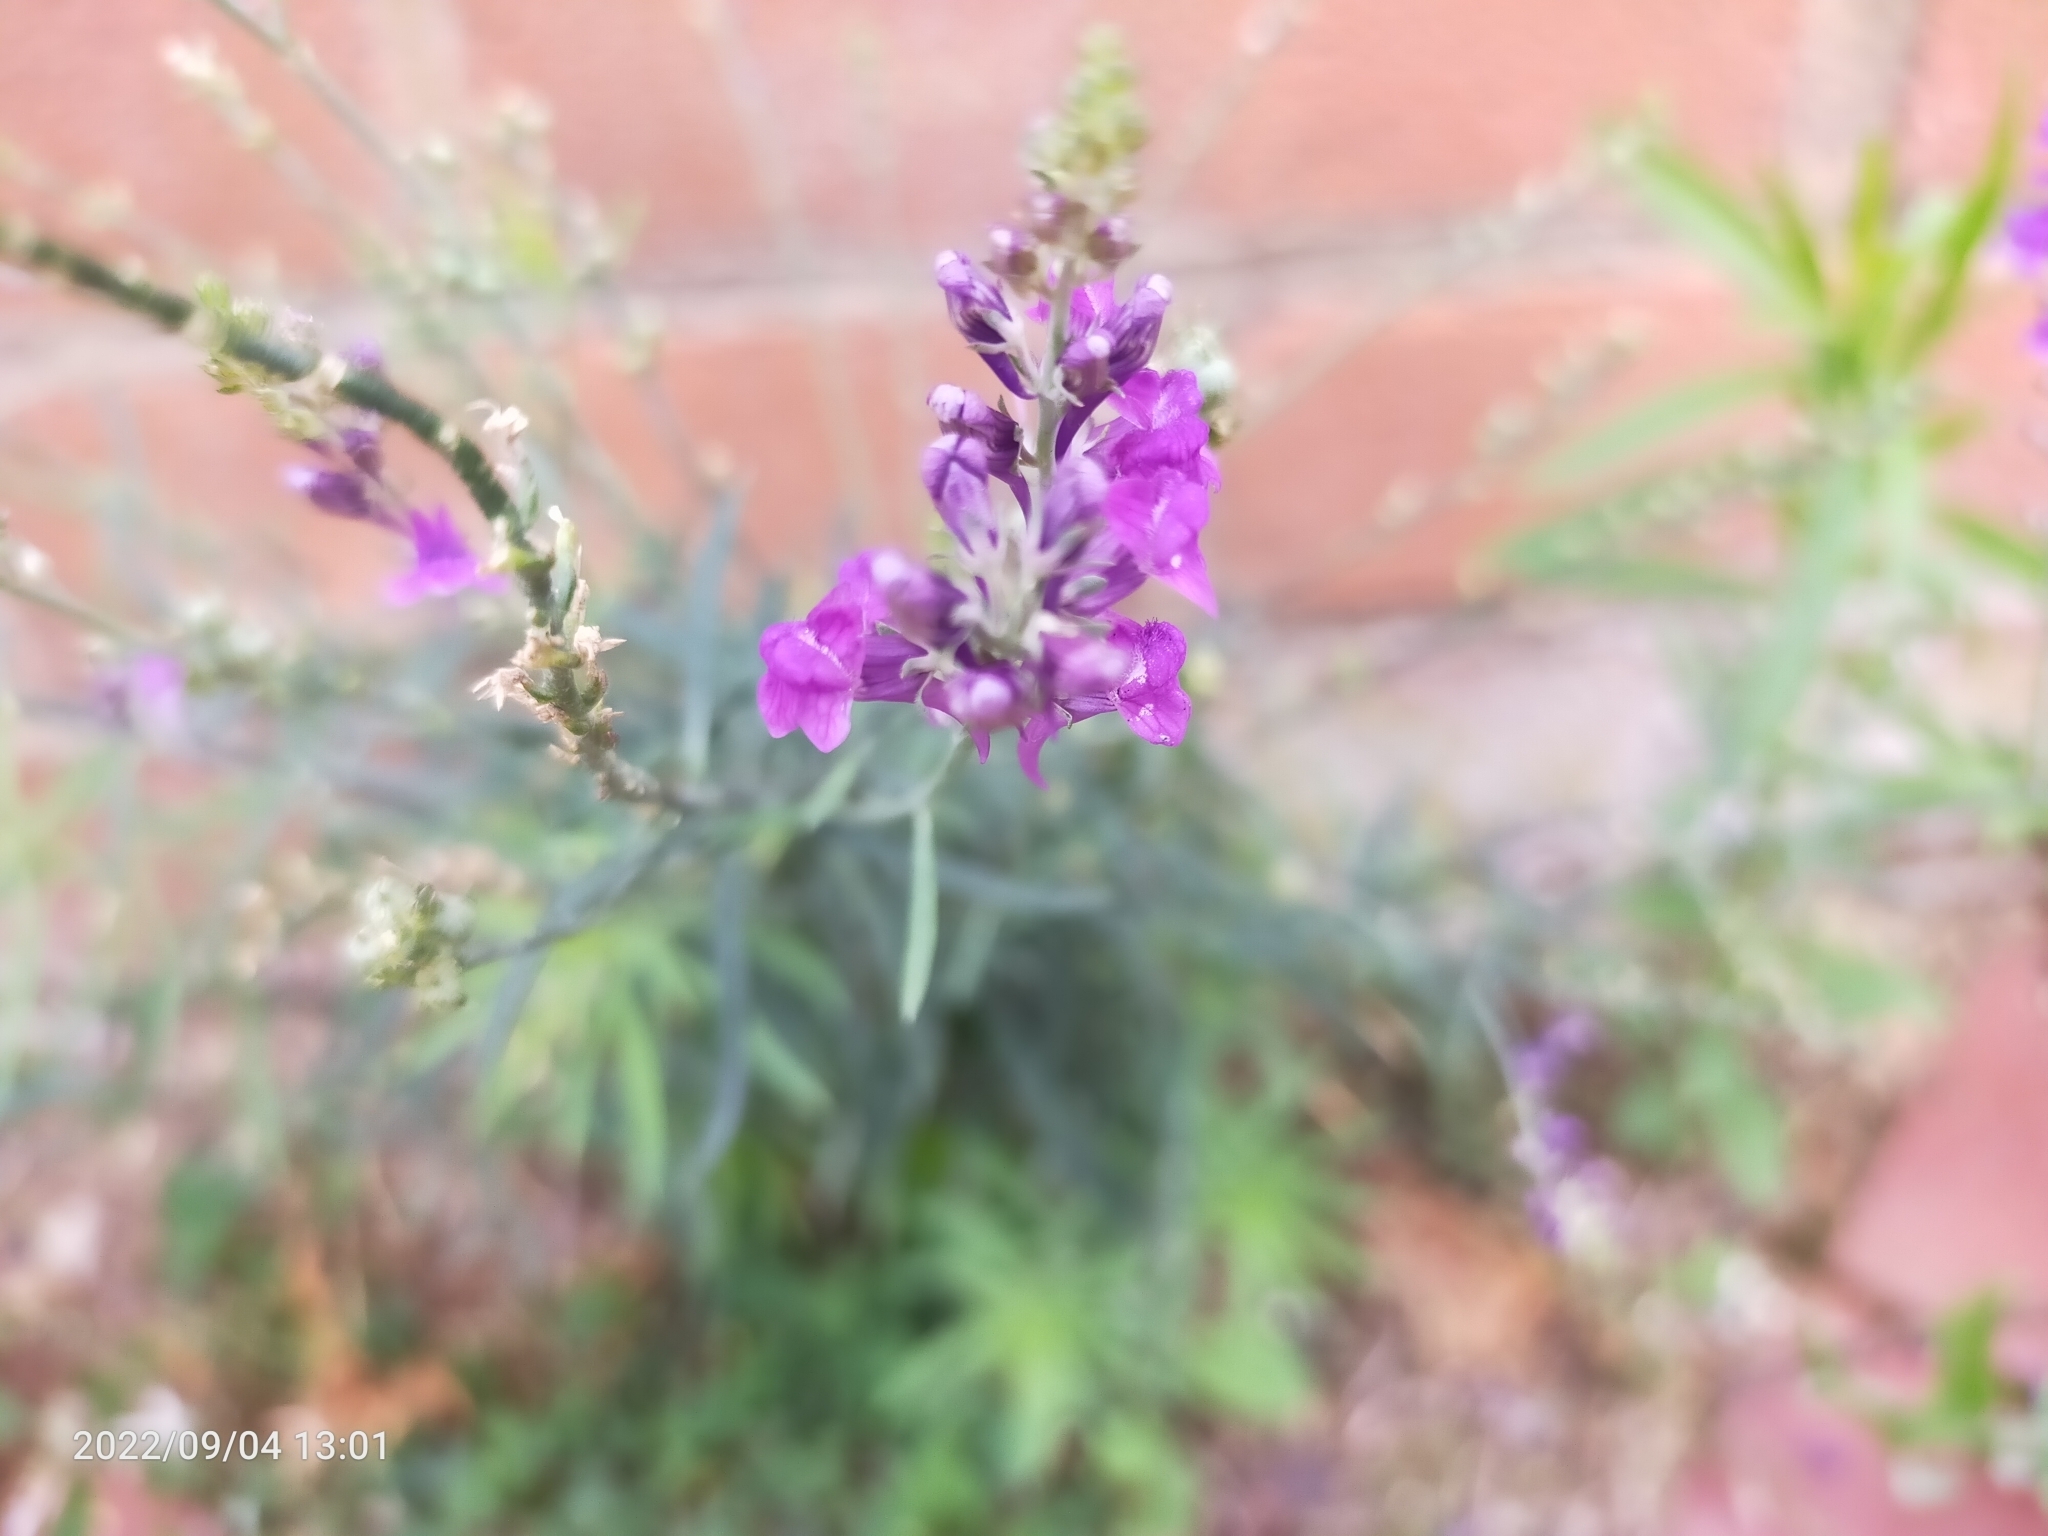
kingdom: Plantae
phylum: Tracheophyta
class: Magnoliopsida
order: Lamiales
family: Plantaginaceae
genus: Linaria
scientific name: Linaria purpurea
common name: Purple toadflax
